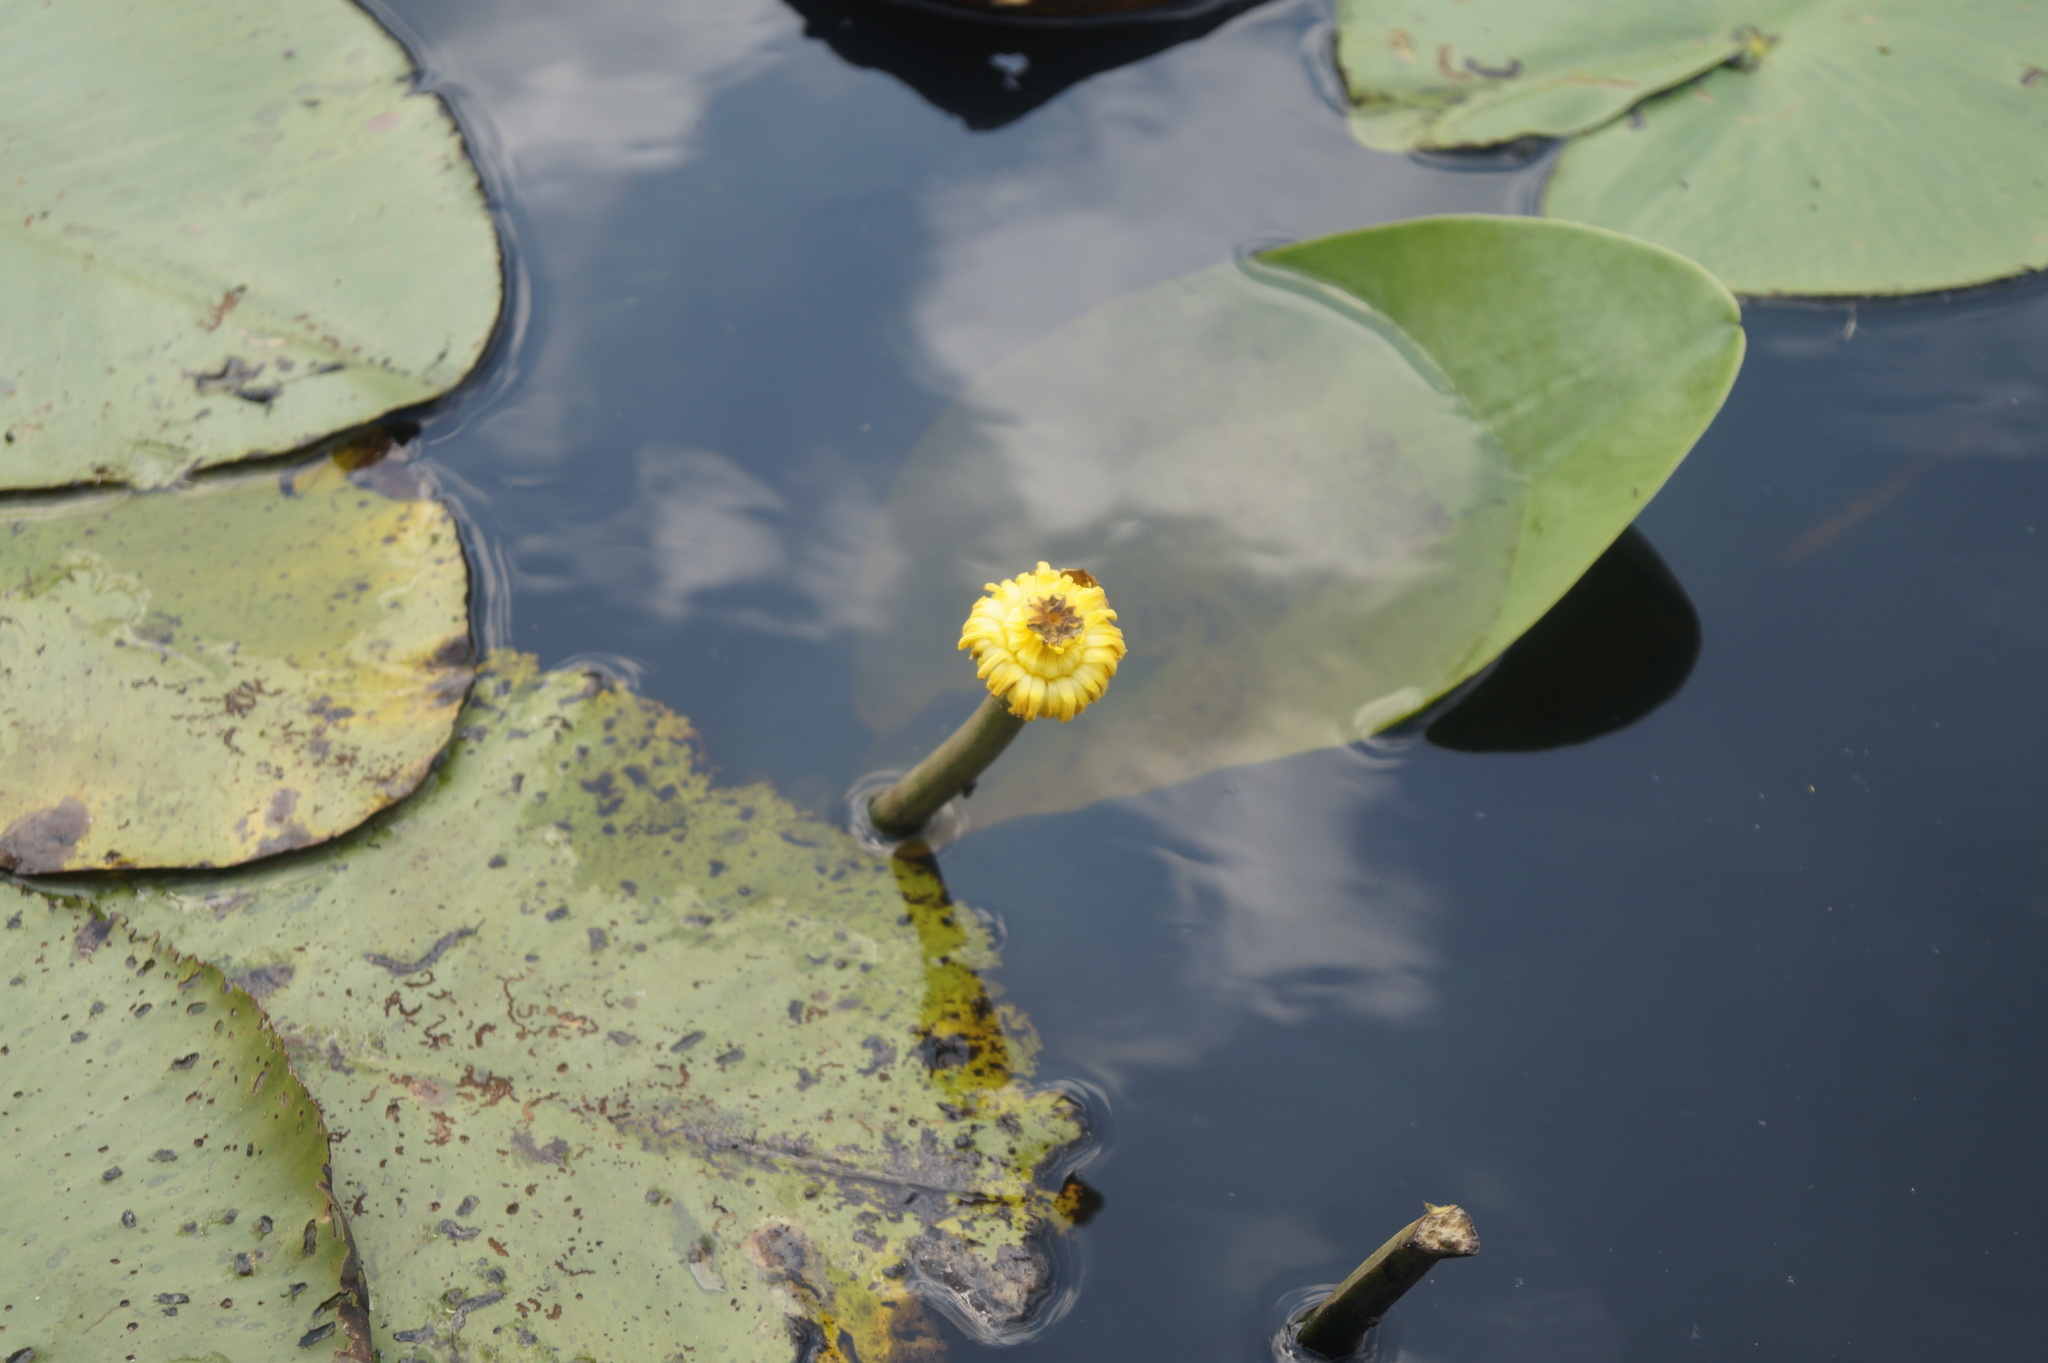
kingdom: Plantae
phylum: Tracheophyta
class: Magnoliopsida
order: Nymphaeales
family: Nymphaeaceae
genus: Nuphar
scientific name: Nuphar lutea
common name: Yellow water-lily
